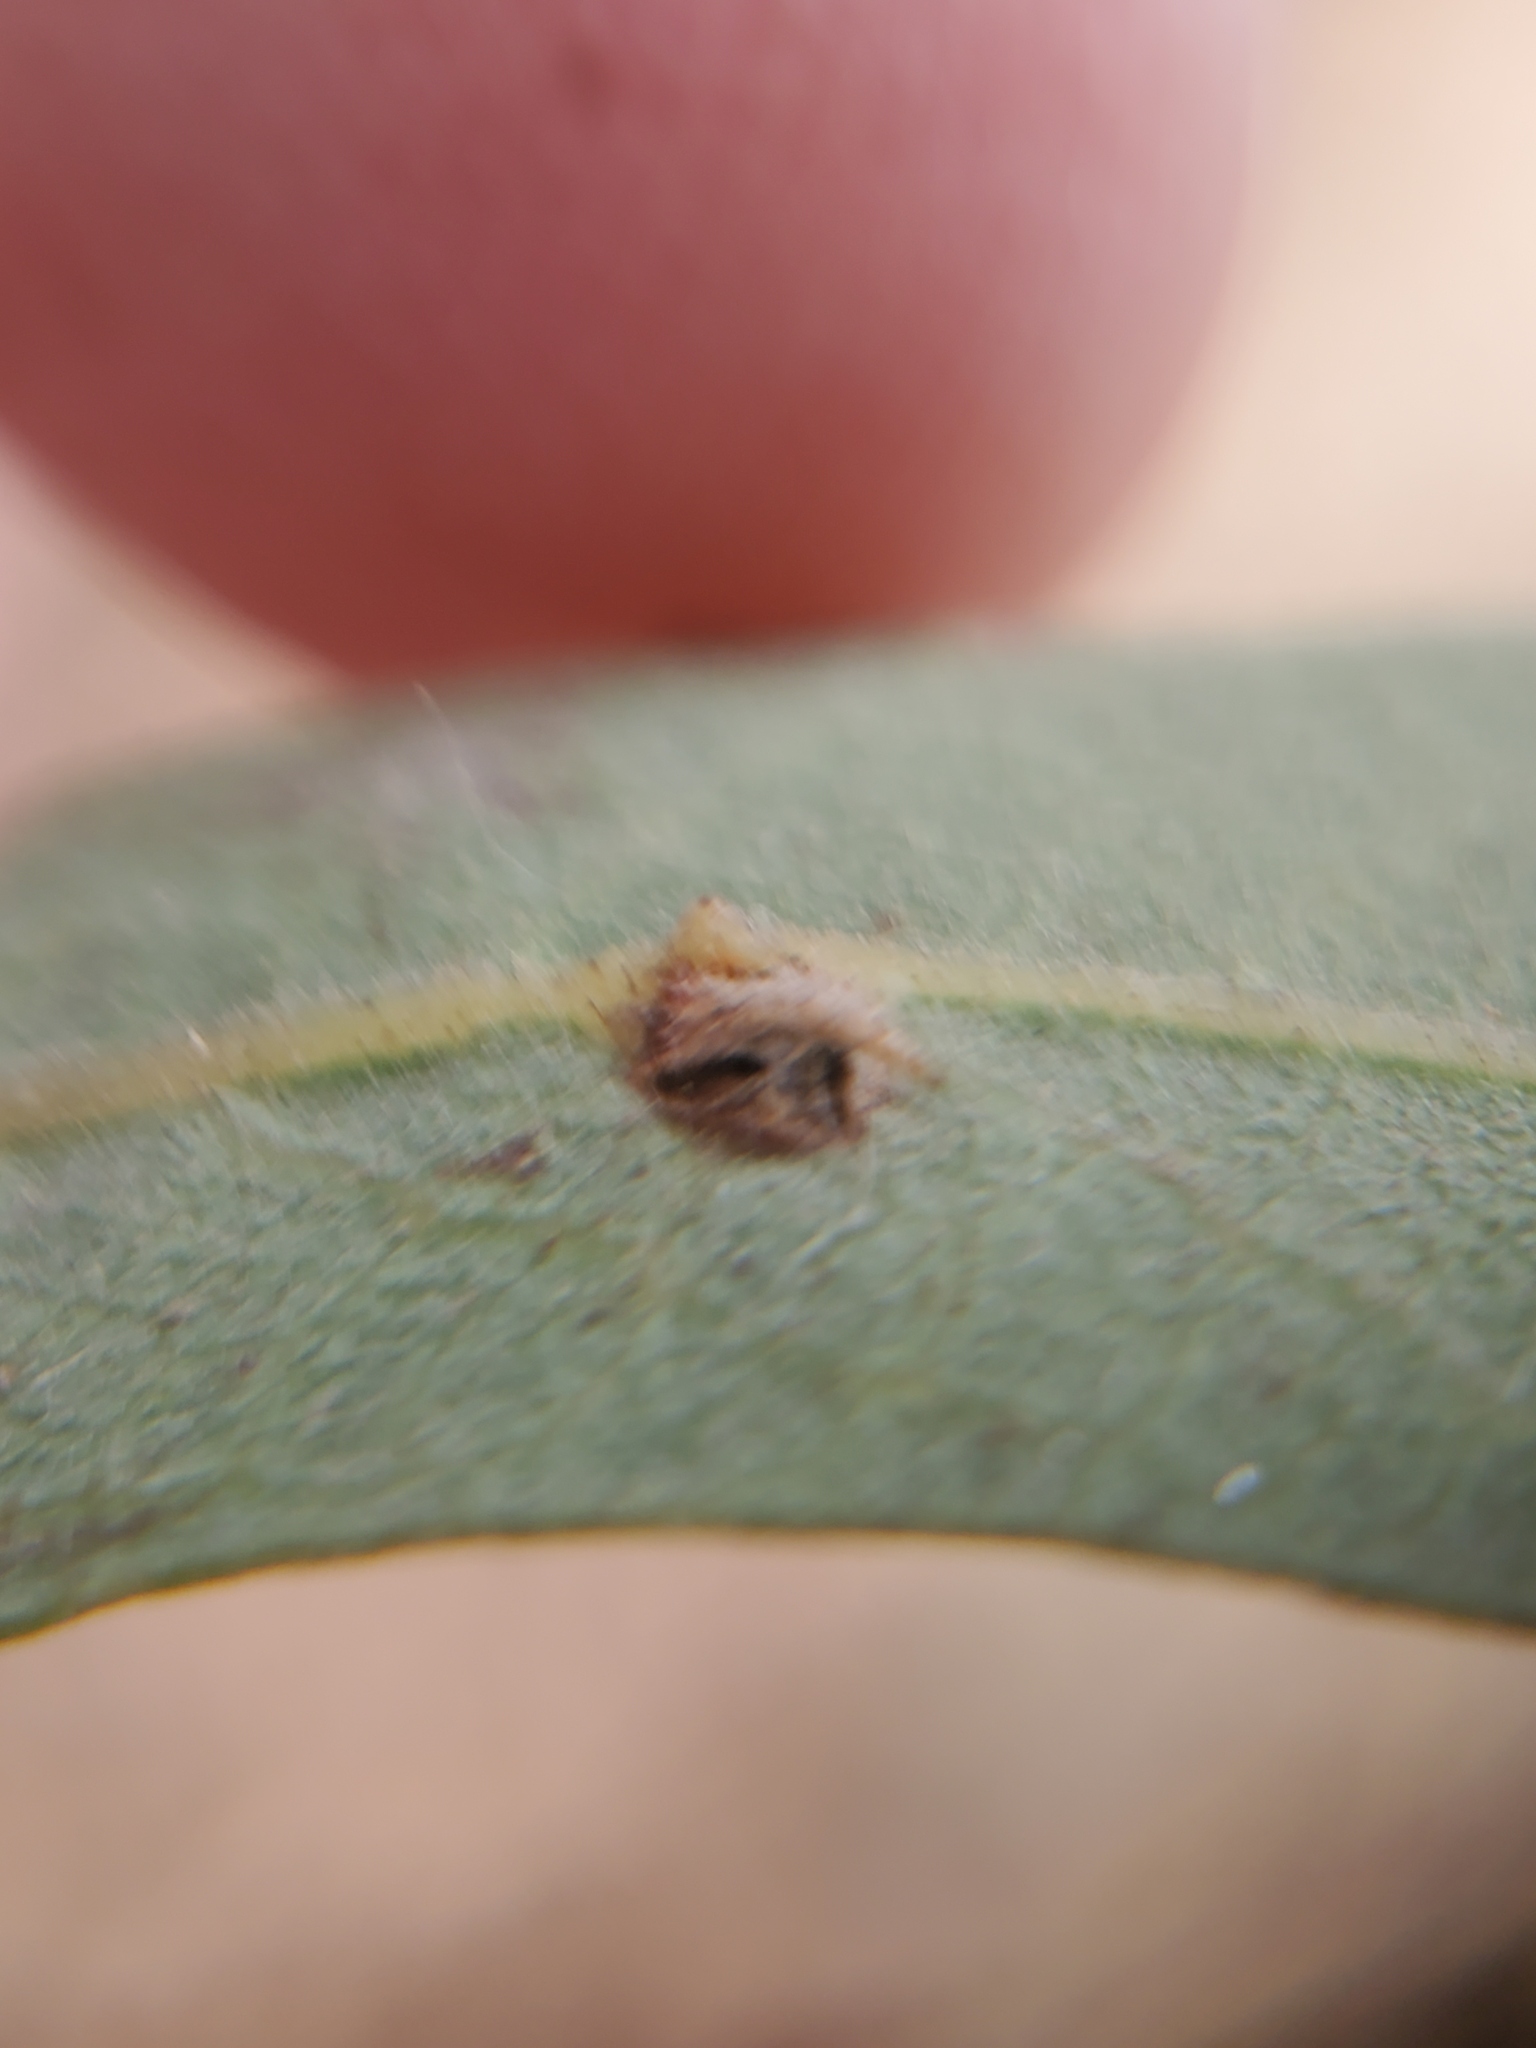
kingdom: Animalia
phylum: Arthropoda
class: Insecta
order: Hymenoptera
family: Cynipidae
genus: Andricus
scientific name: Andricus
